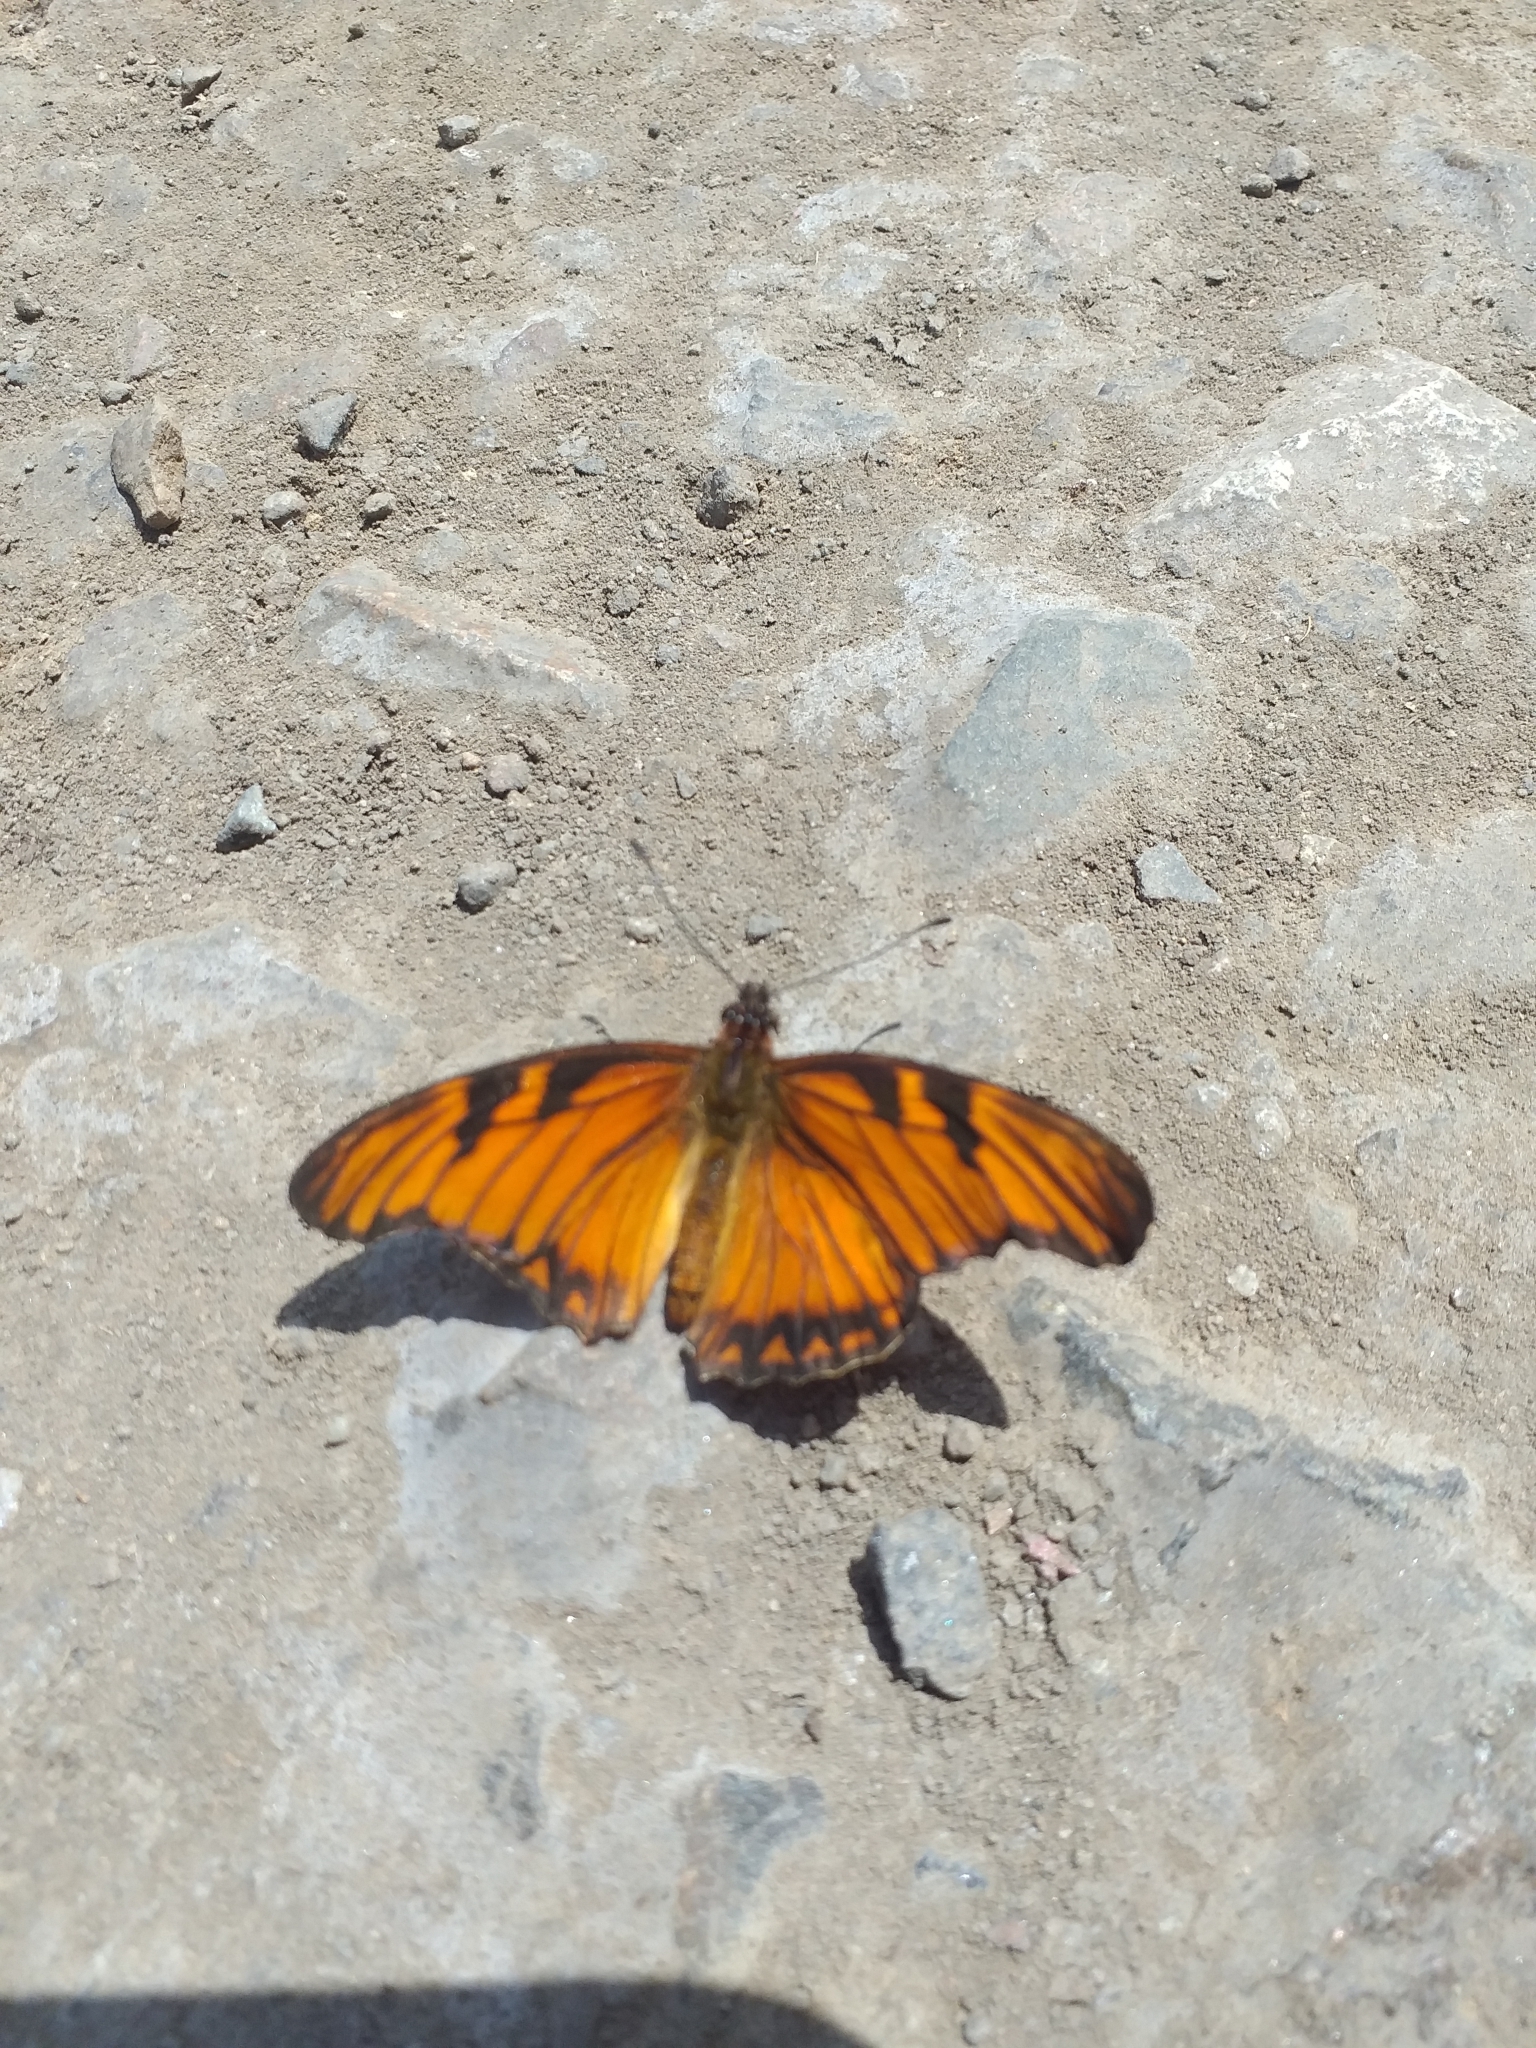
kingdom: Animalia
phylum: Arthropoda
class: Insecta
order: Lepidoptera
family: Nymphalidae
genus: Dione
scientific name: Dione juno
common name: Juno silverspot
